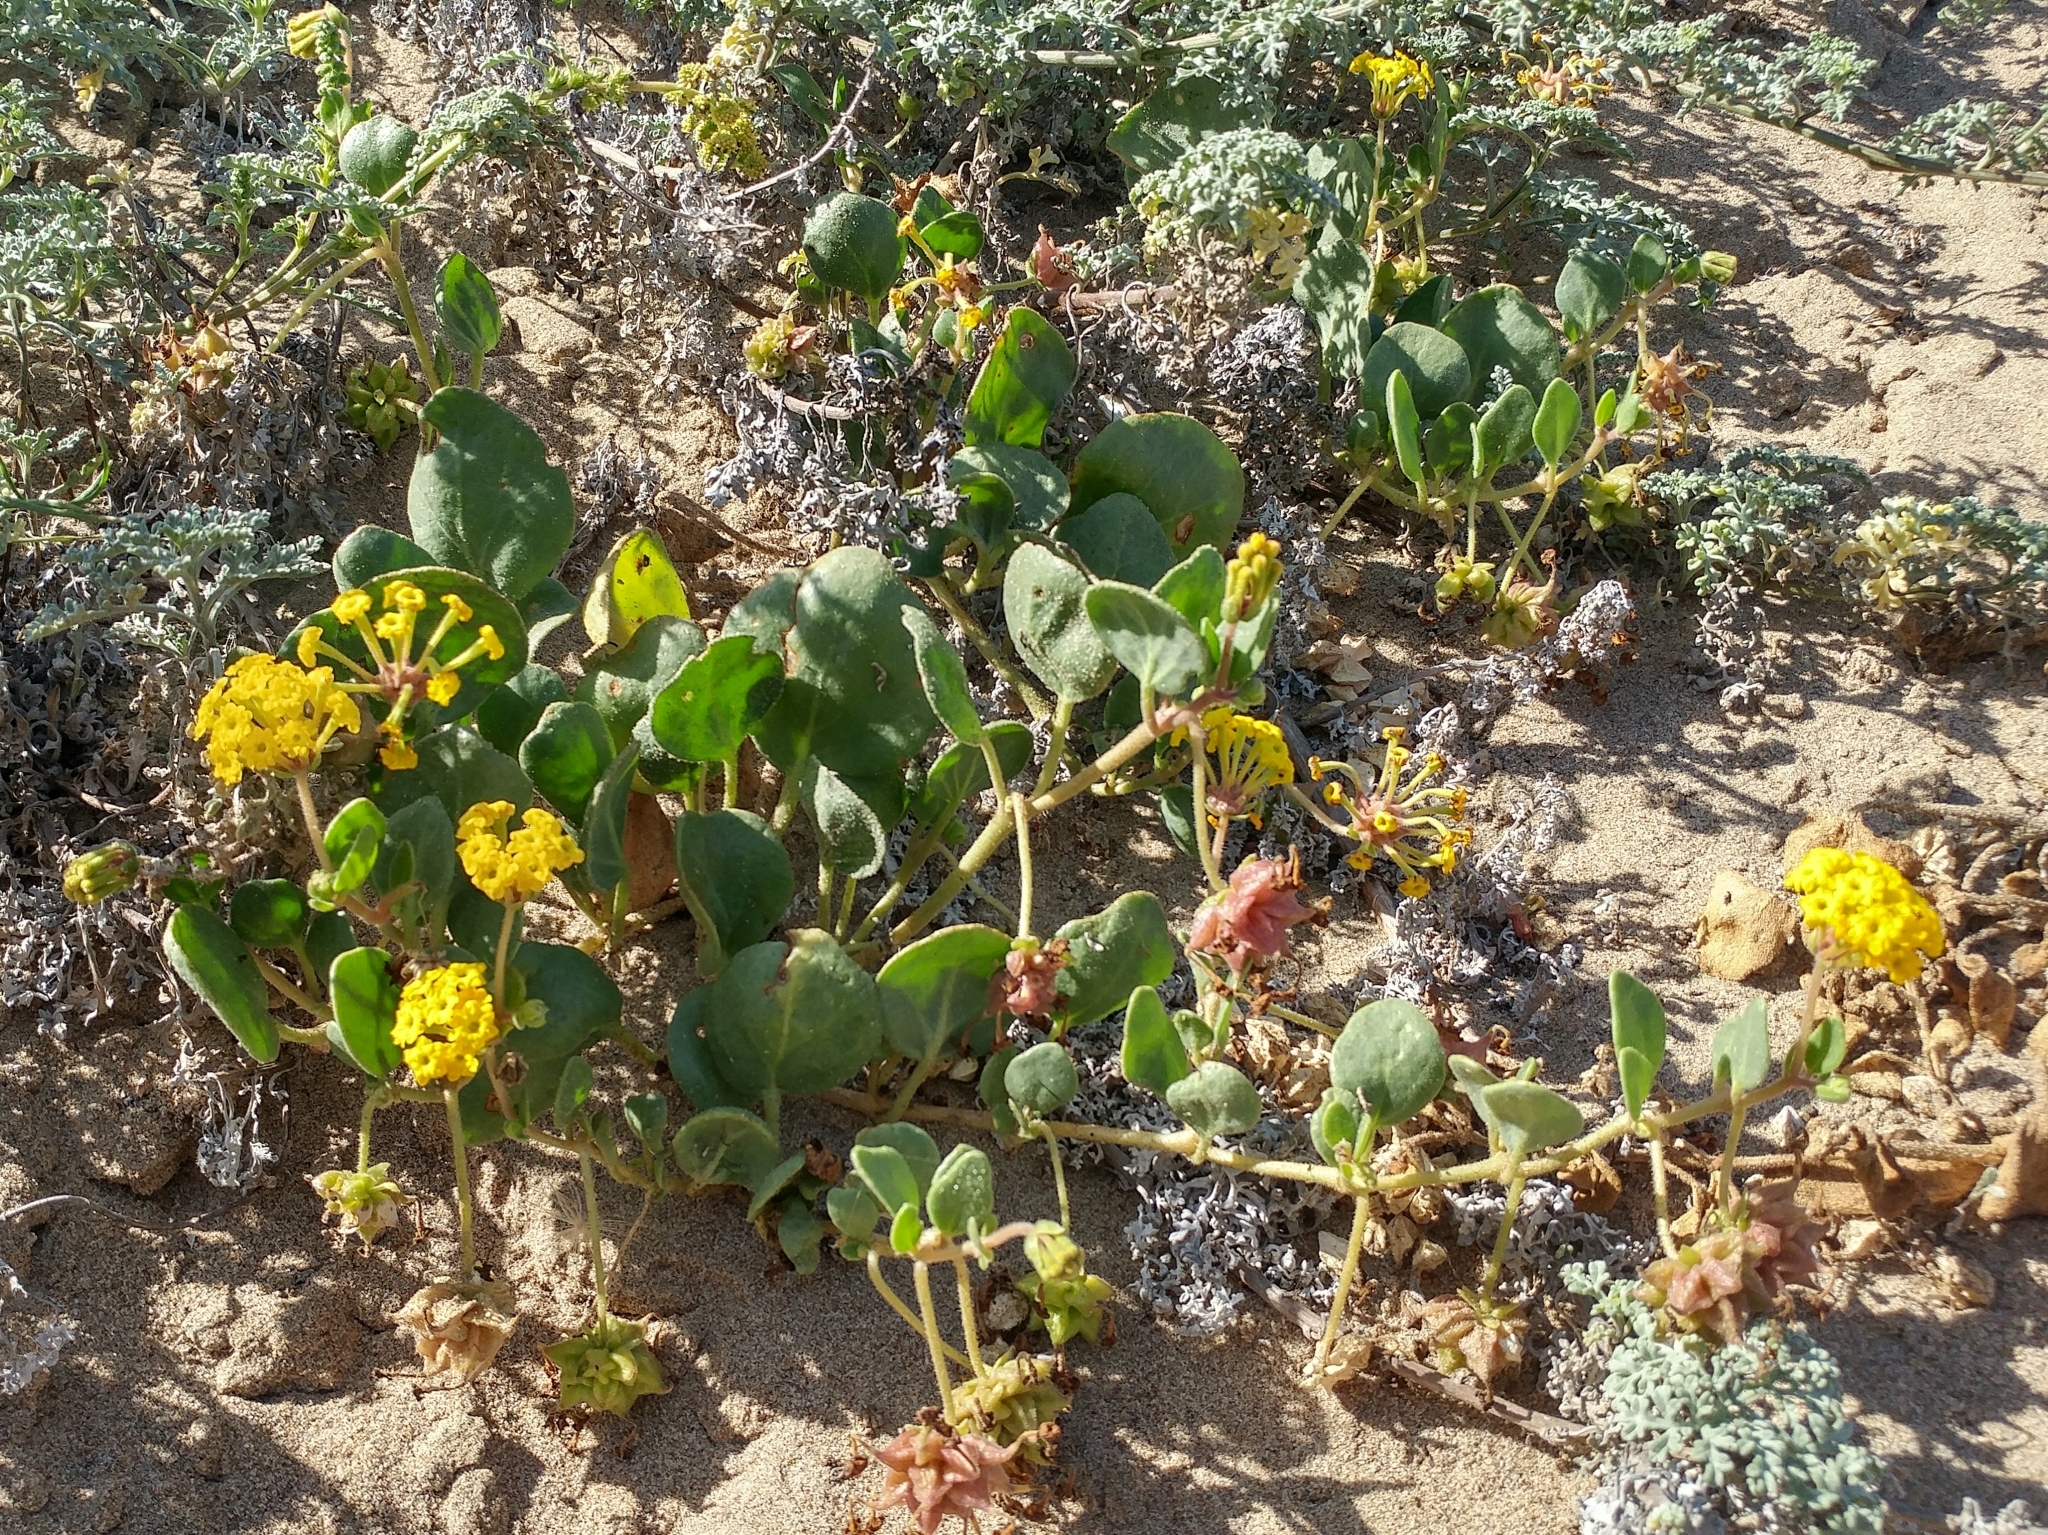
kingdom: Plantae
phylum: Tracheophyta
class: Magnoliopsida
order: Caryophyllales
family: Nyctaginaceae
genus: Abronia
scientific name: Abronia latifolia
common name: Yellow sand-verbena
